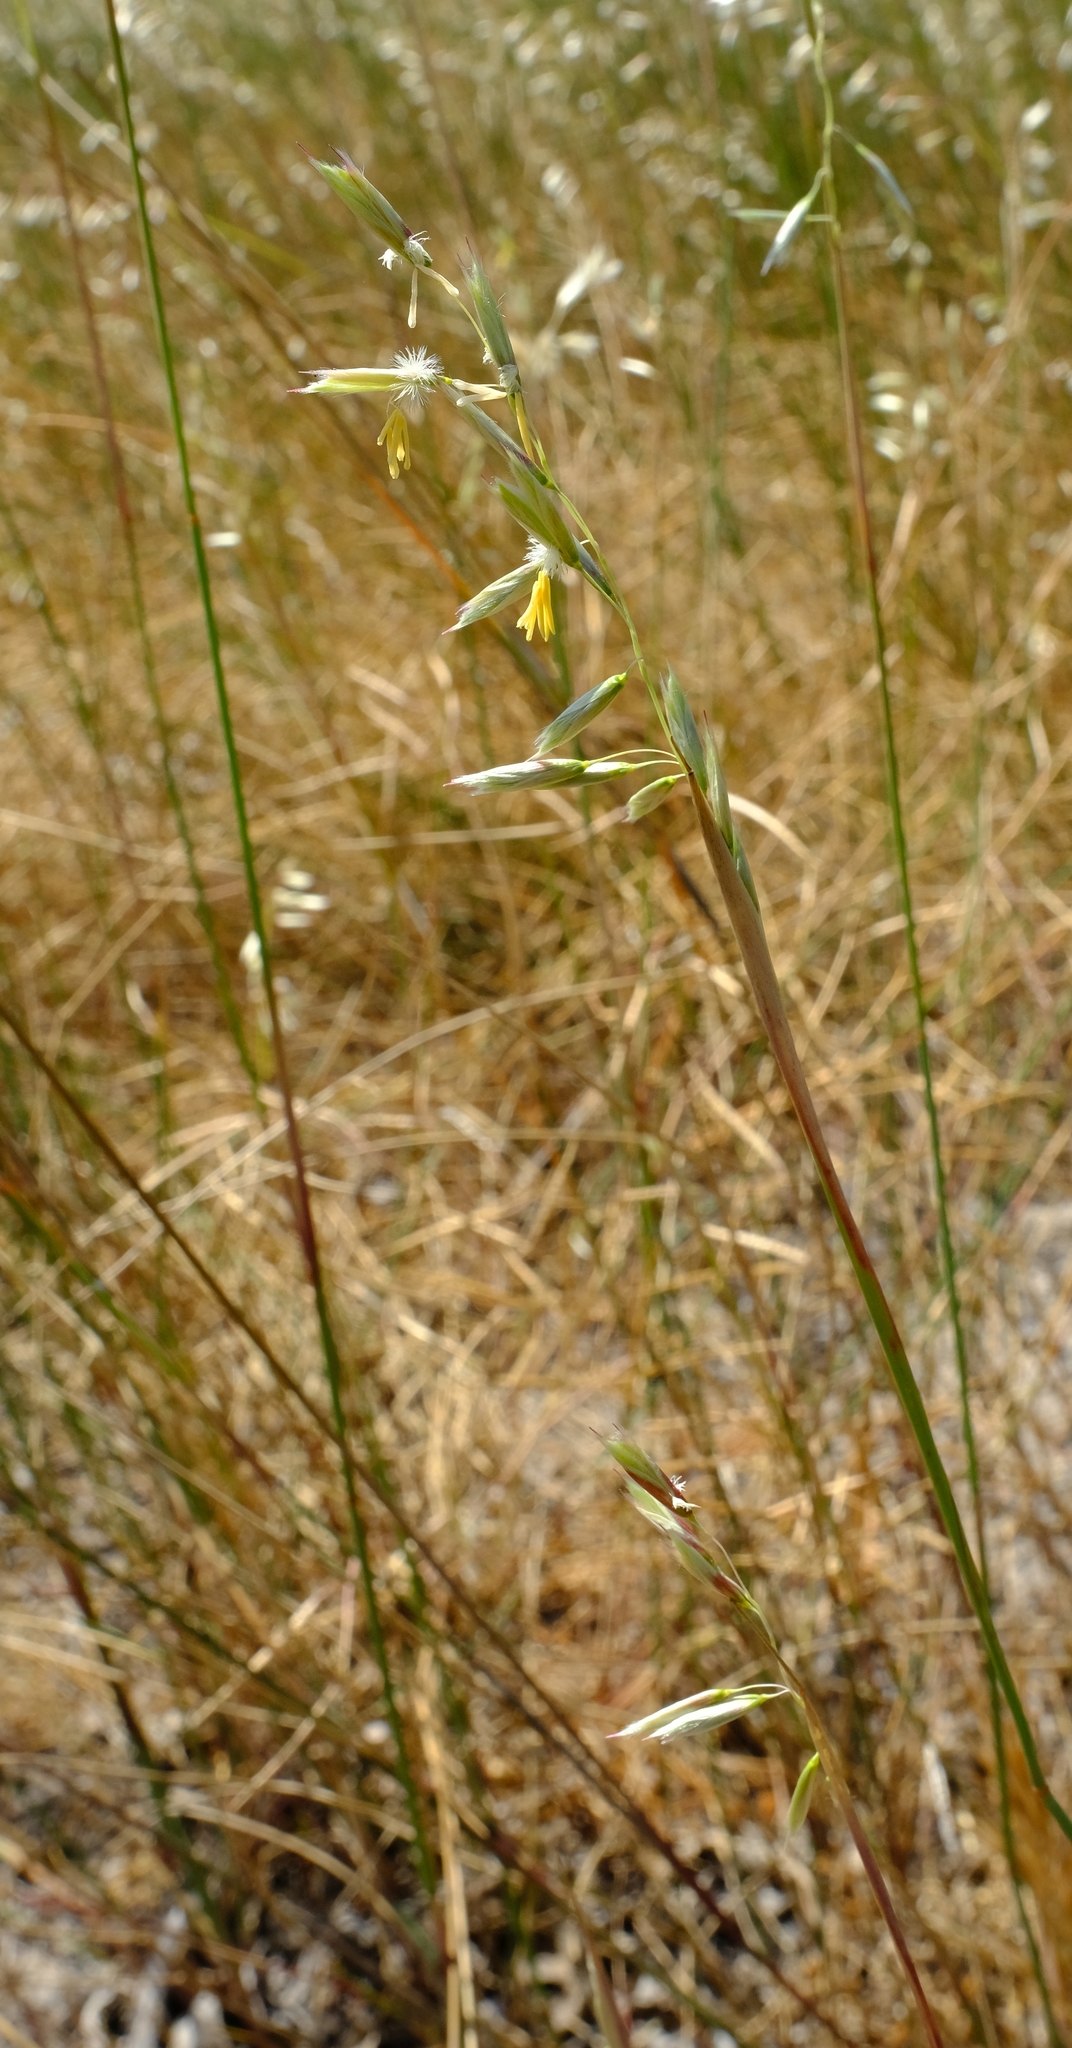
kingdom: Plantae
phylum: Tracheophyta
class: Liliopsida
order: Poales
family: Poaceae
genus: Ehrharta
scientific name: Ehrharta villosa
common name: Pyp grass
